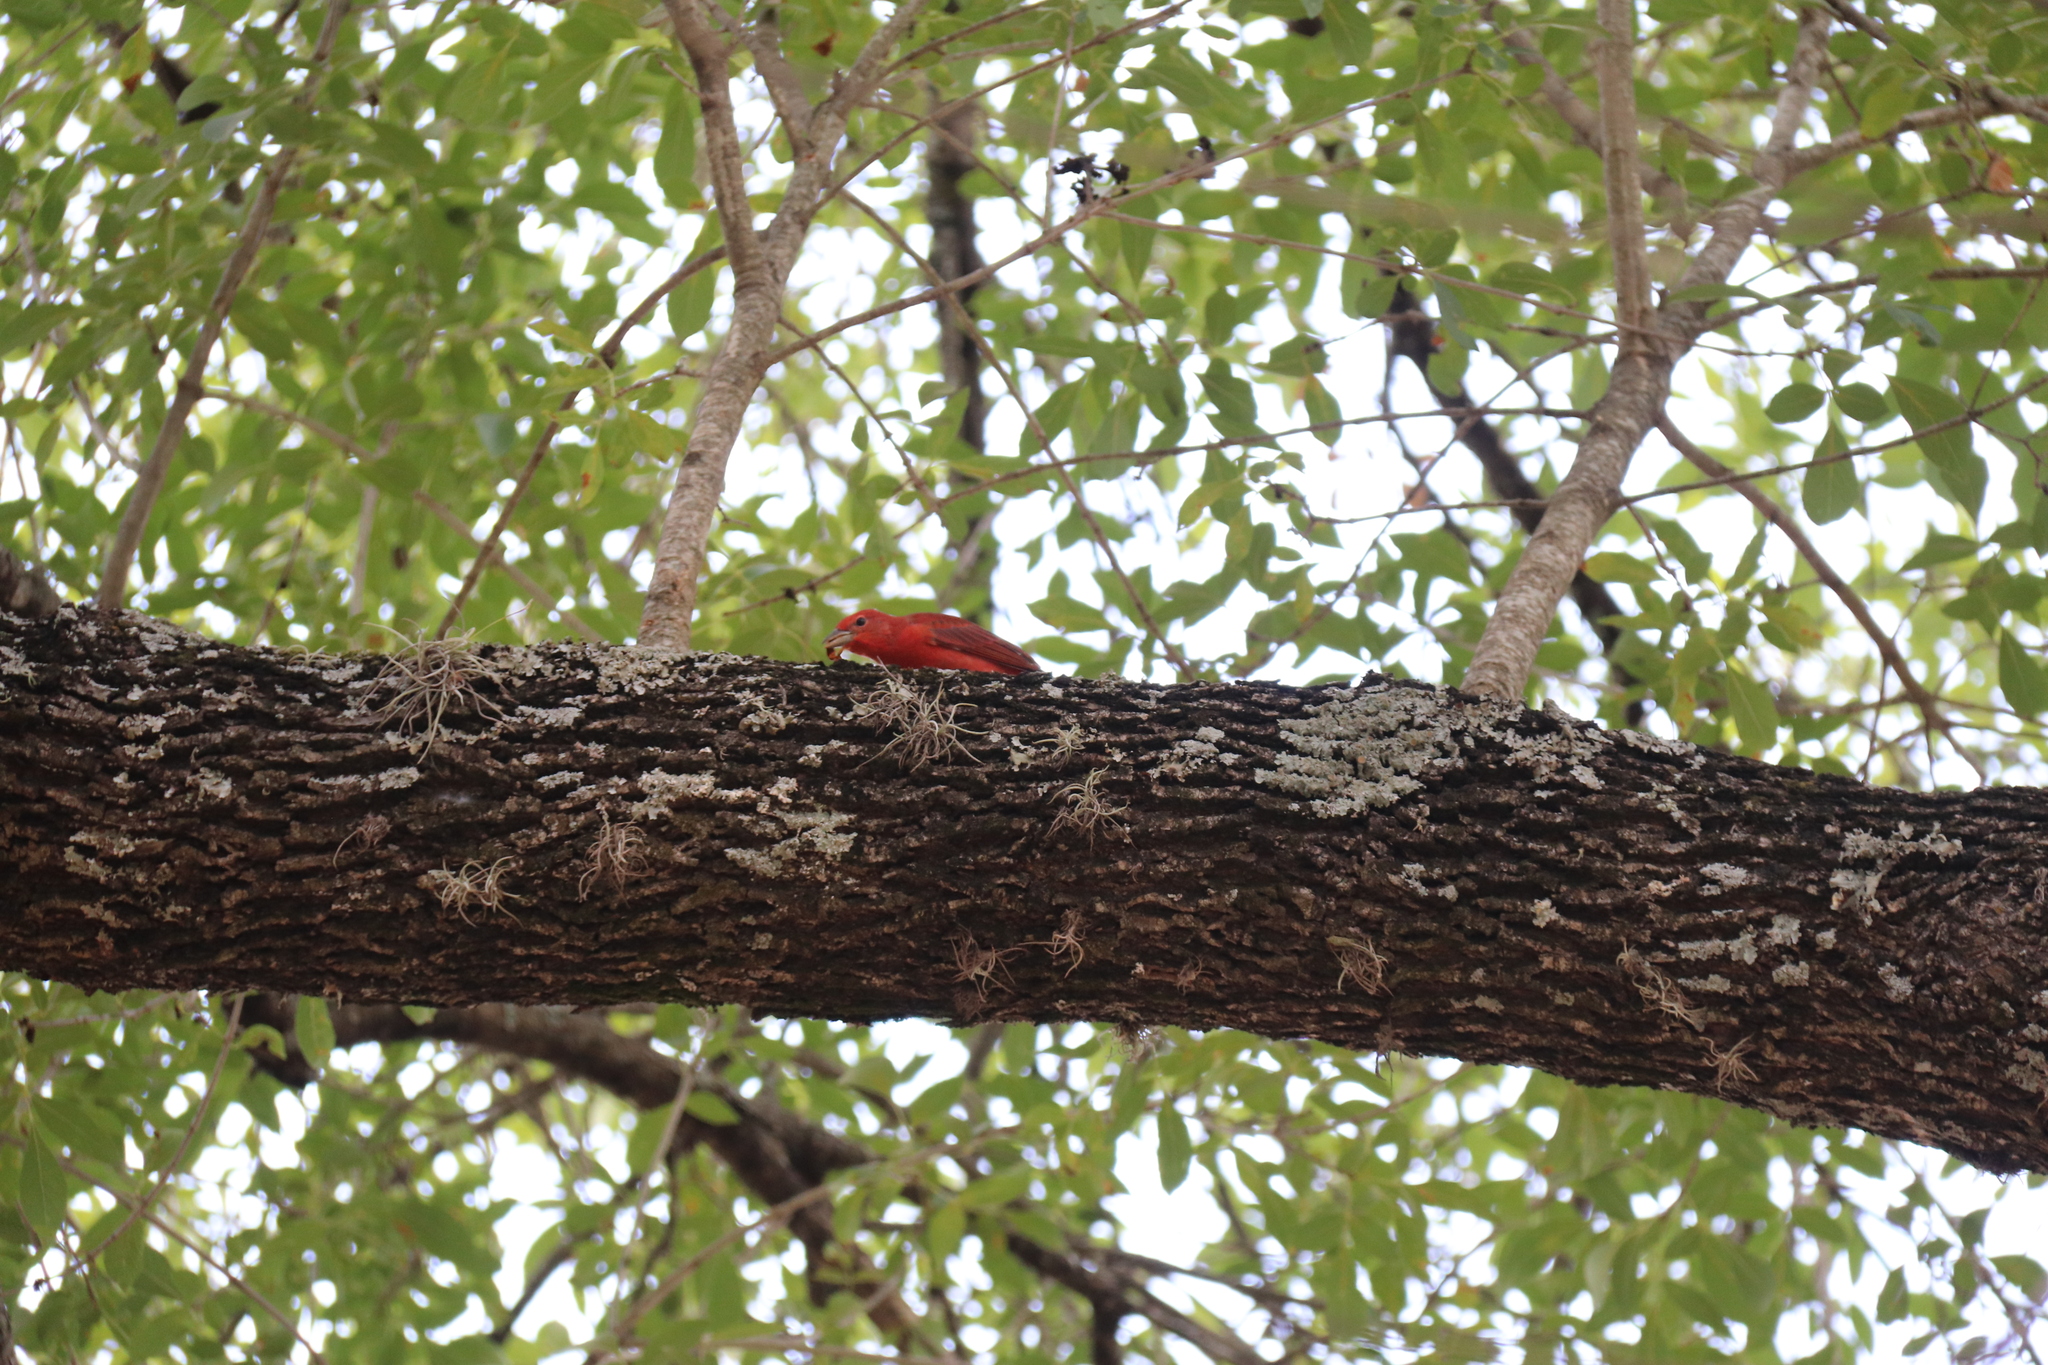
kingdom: Animalia
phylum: Chordata
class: Aves
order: Passeriformes
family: Cardinalidae
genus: Piranga
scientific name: Piranga rubra
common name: Summer tanager
